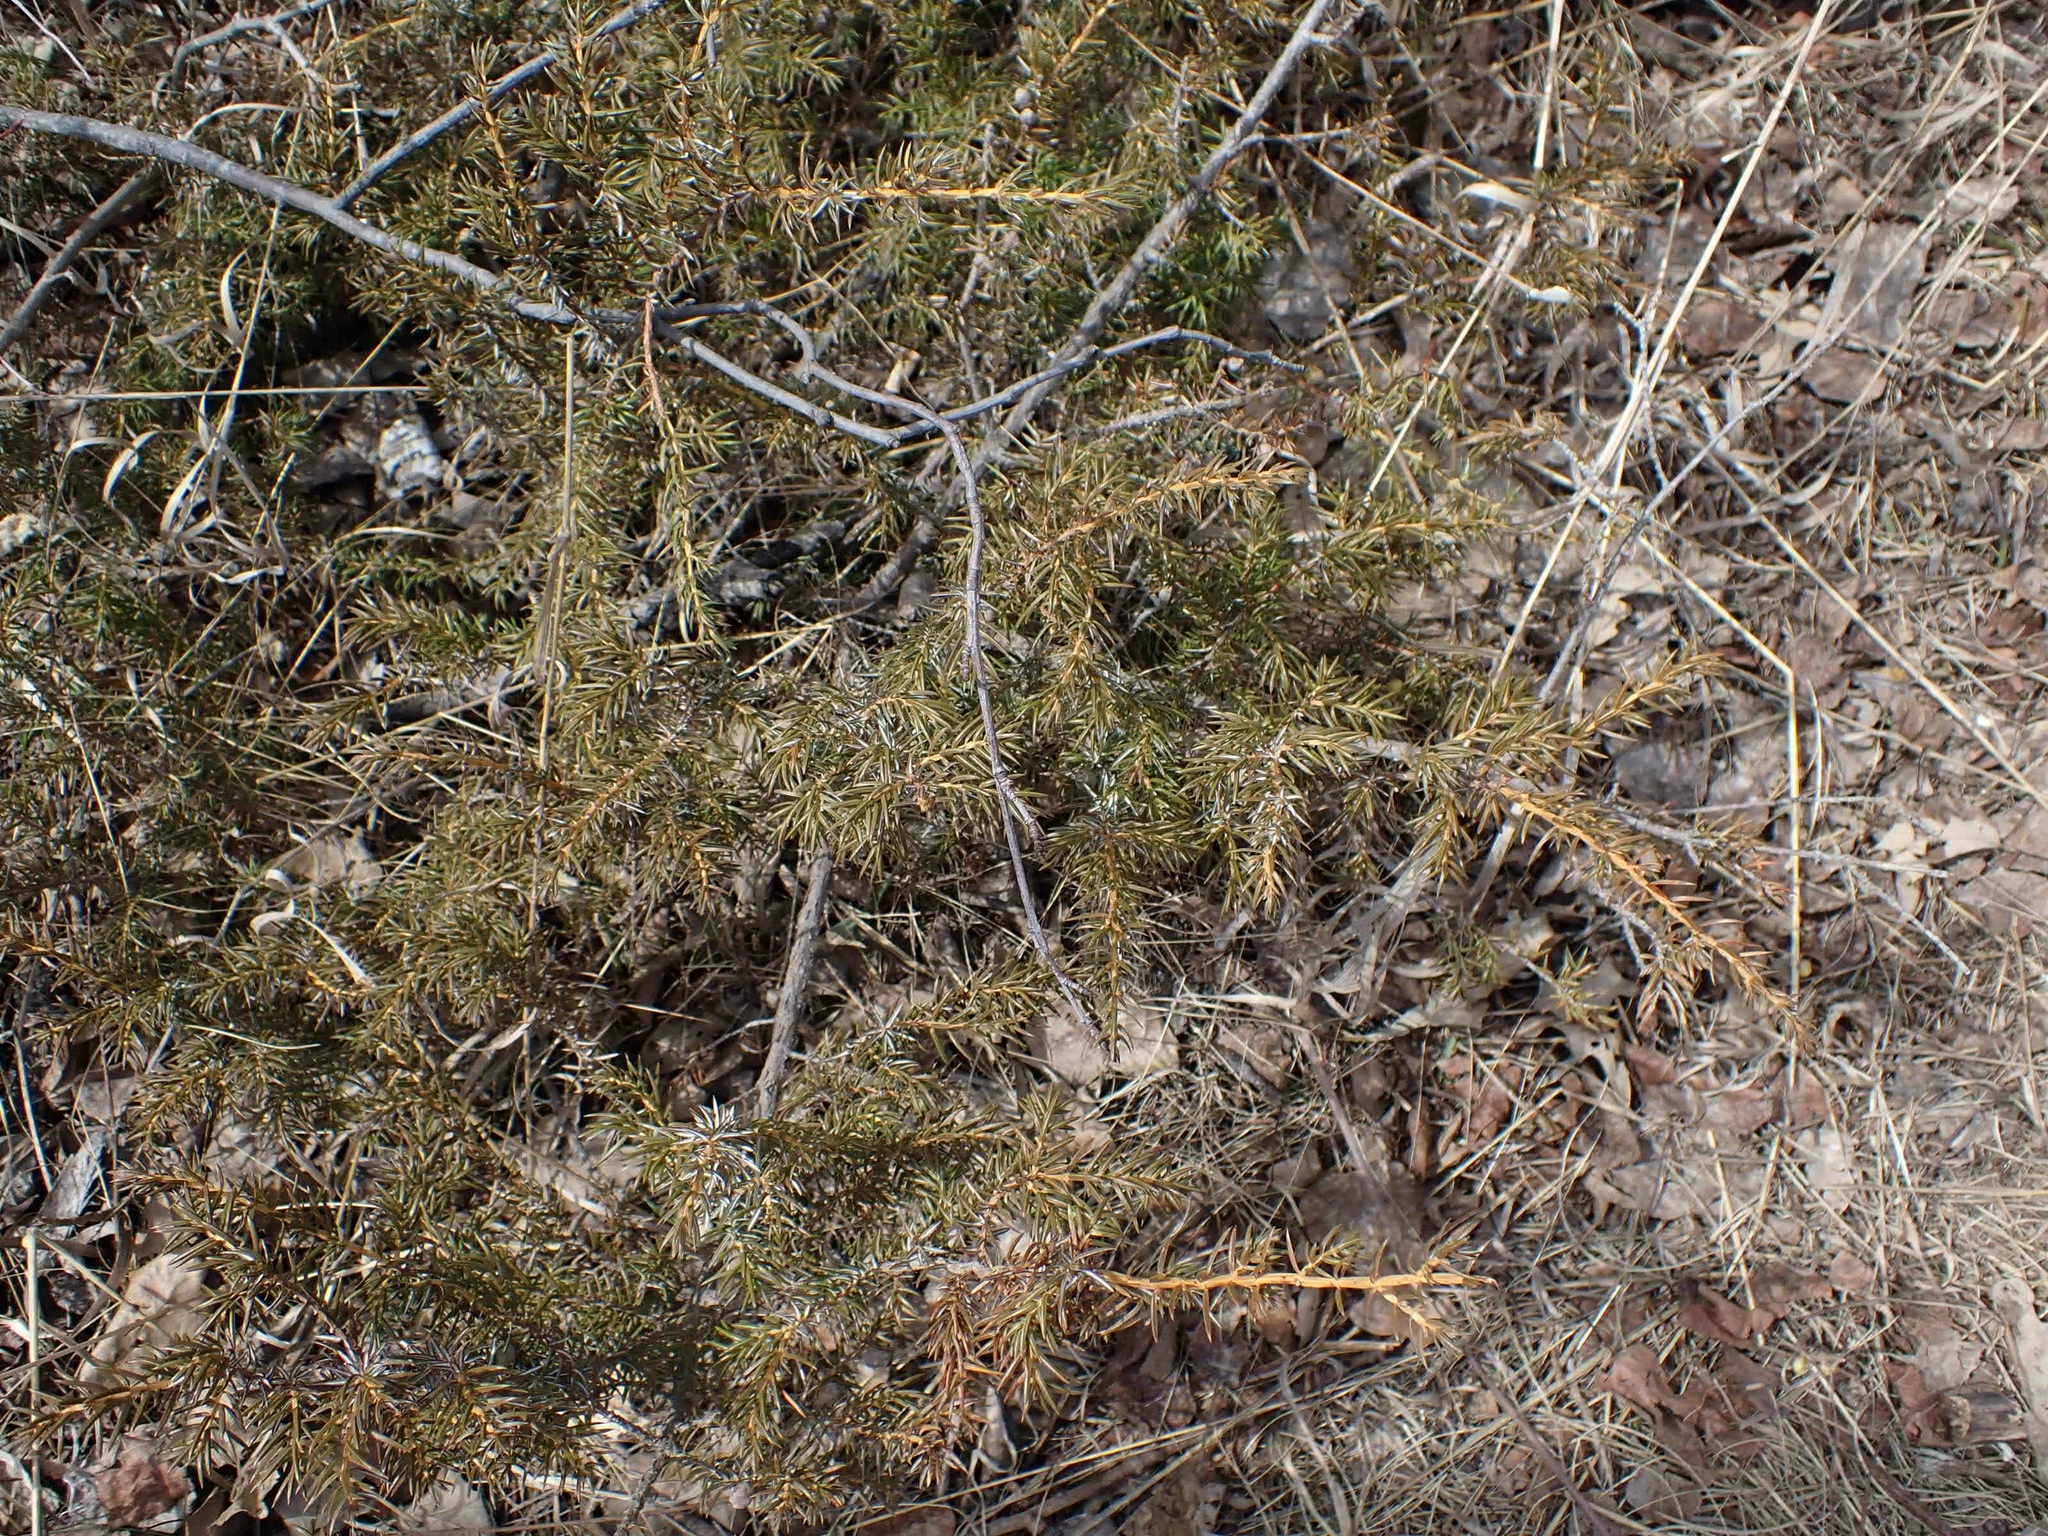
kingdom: Plantae
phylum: Tracheophyta
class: Pinopsida
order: Pinales
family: Cupressaceae
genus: Juniperus
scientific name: Juniperus communis
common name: Common juniper
